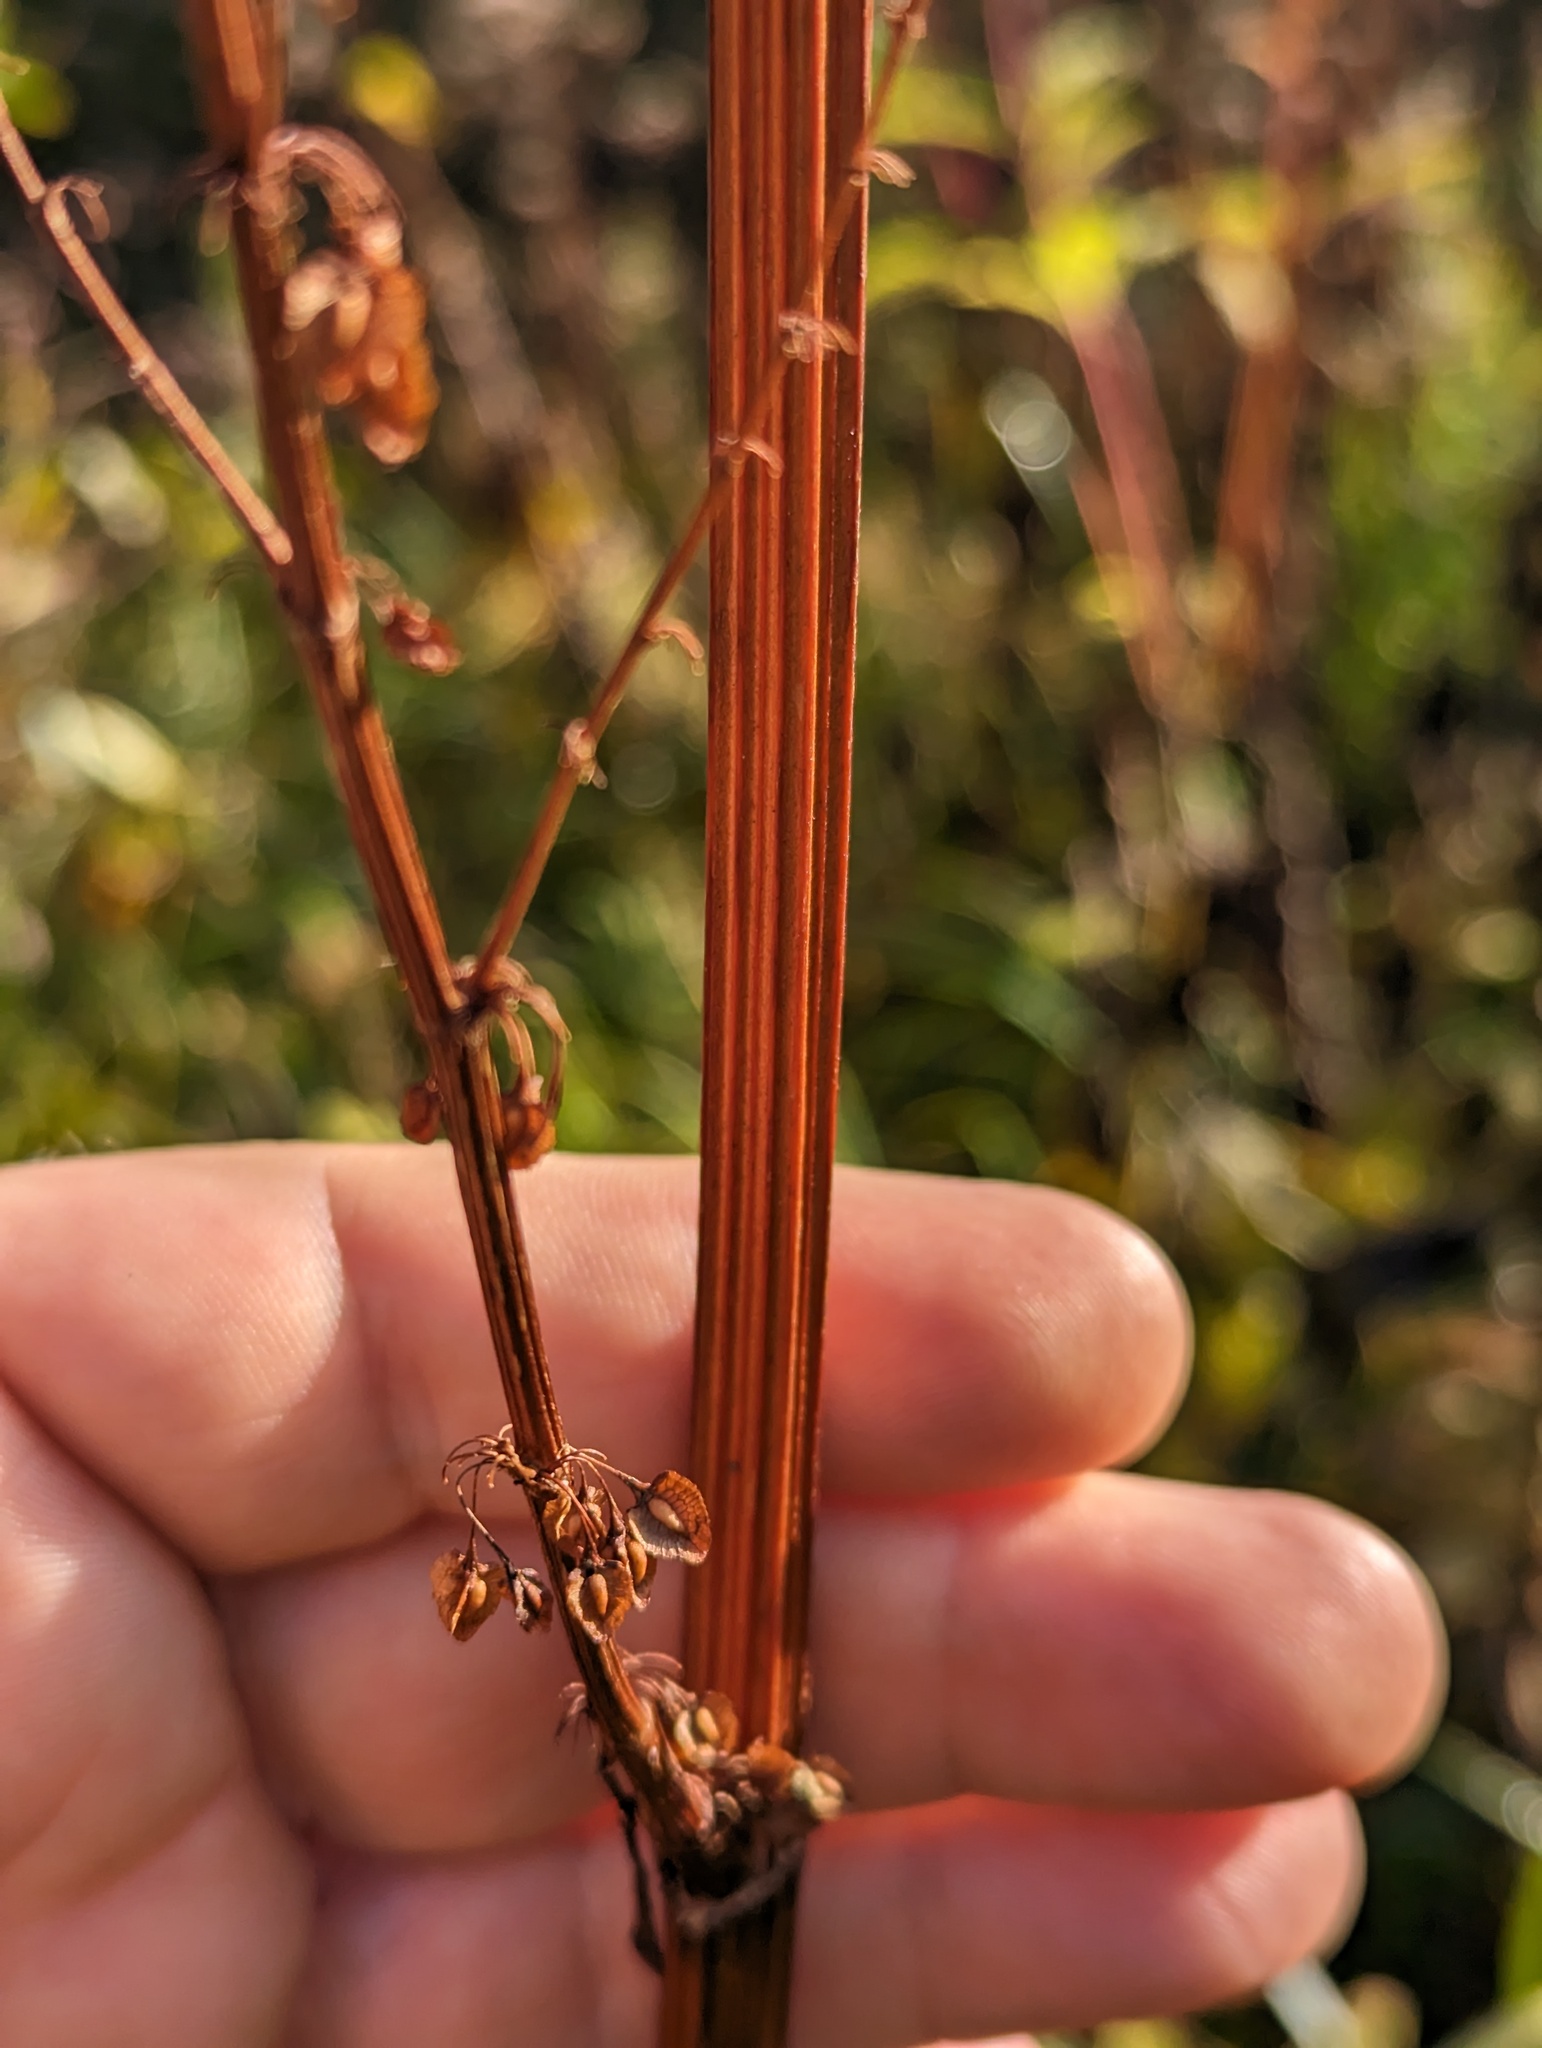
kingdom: Plantae
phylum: Tracheophyta
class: Magnoliopsida
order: Caryophyllales
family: Polygonaceae
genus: Rumex
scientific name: Rumex britannica
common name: British dock
